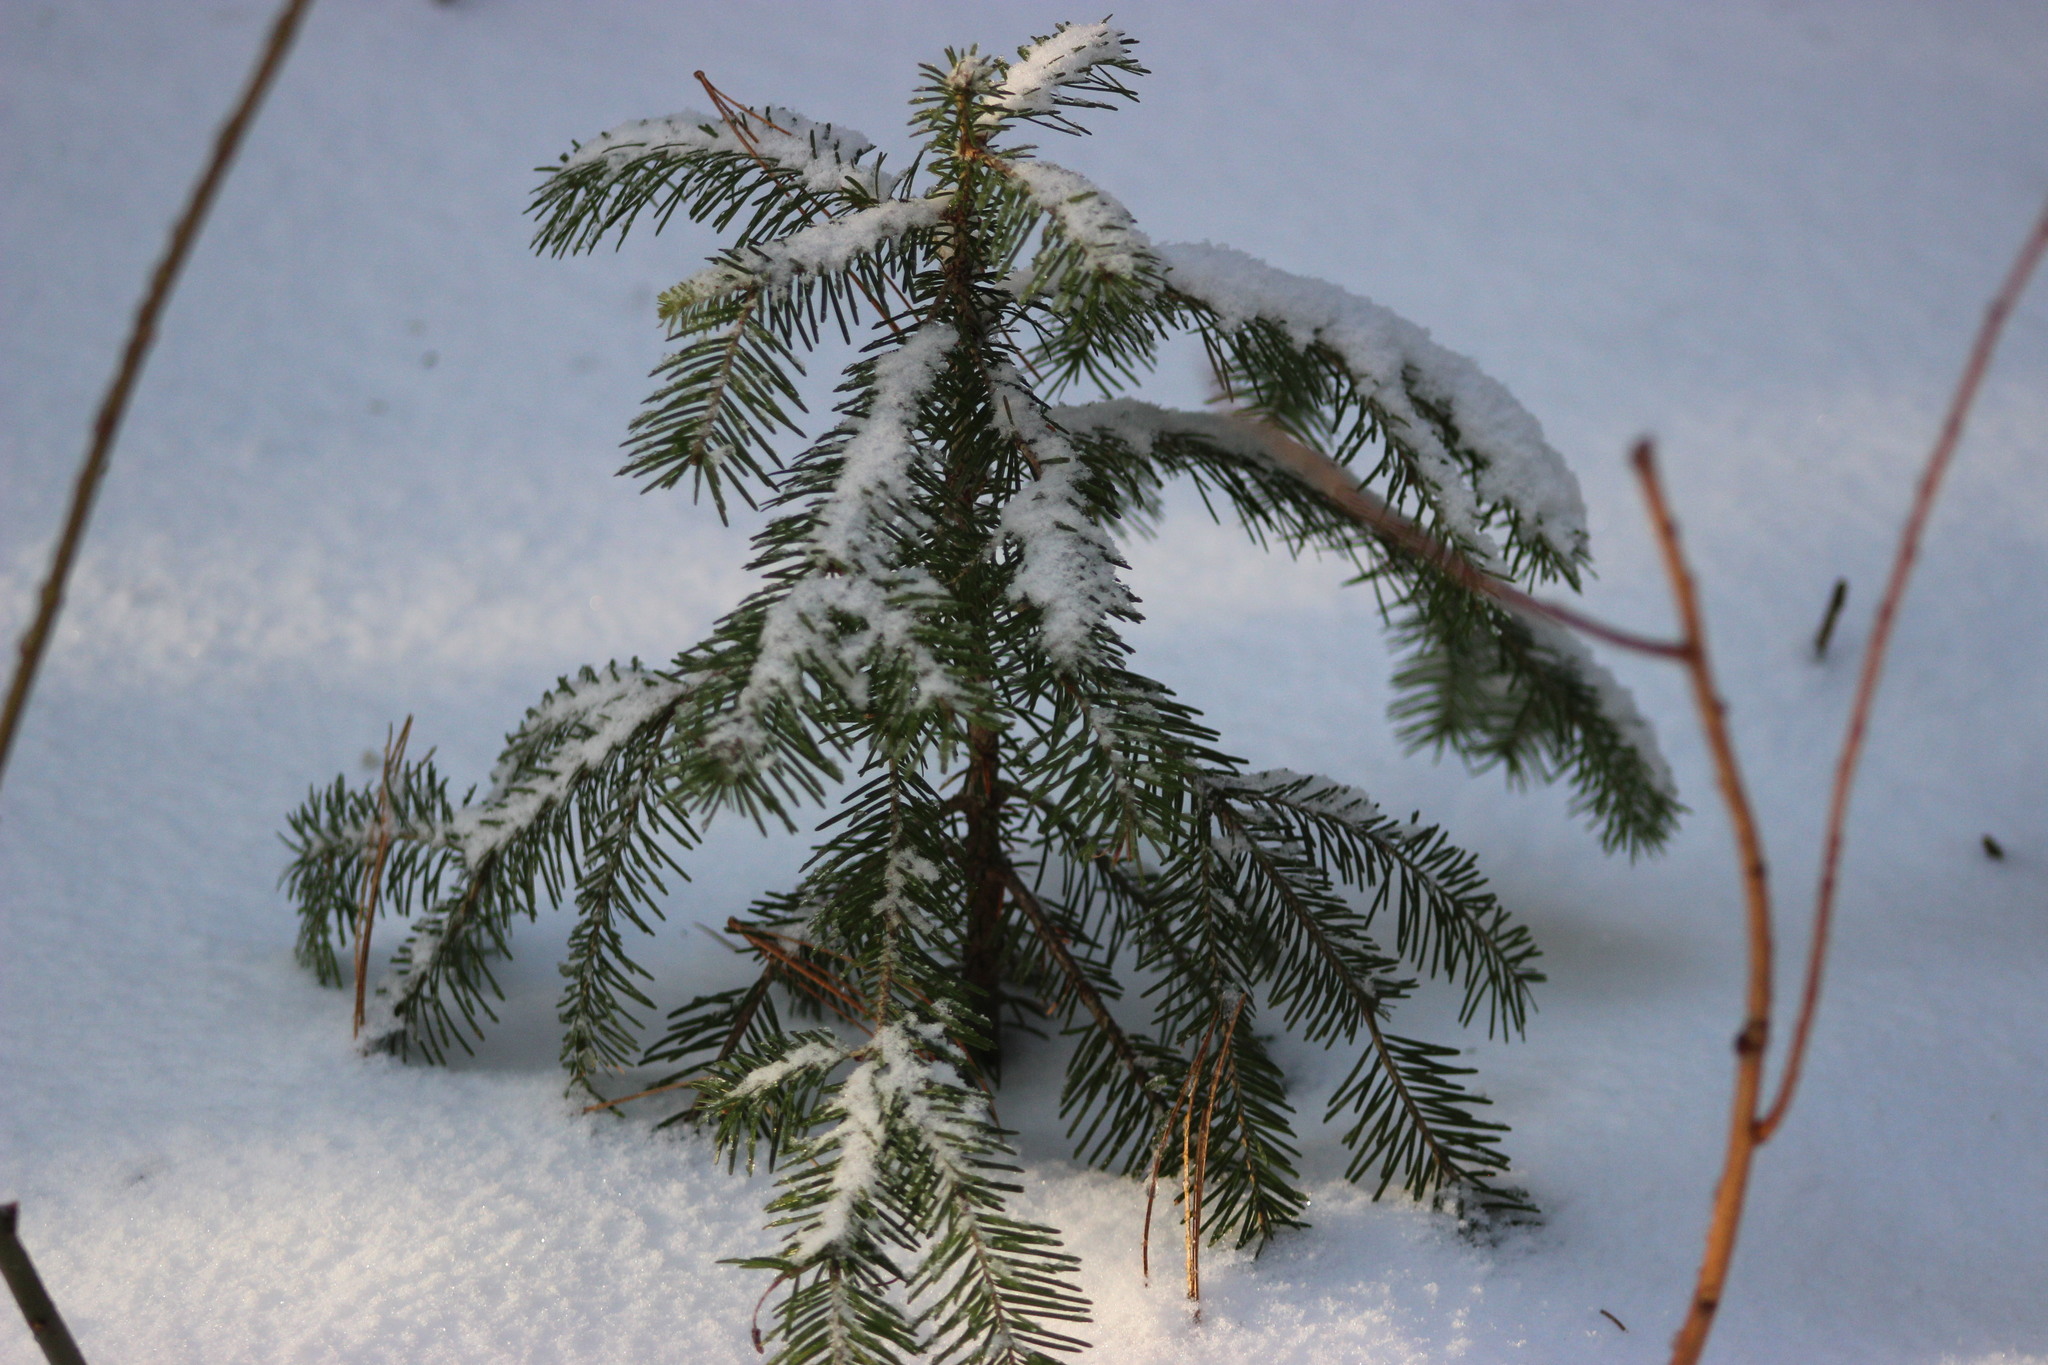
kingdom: Plantae
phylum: Tracheophyta
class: Pinopsida
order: Pinales
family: Pinaceae
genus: Abies
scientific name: Abies sibirica
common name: Siberian fir
